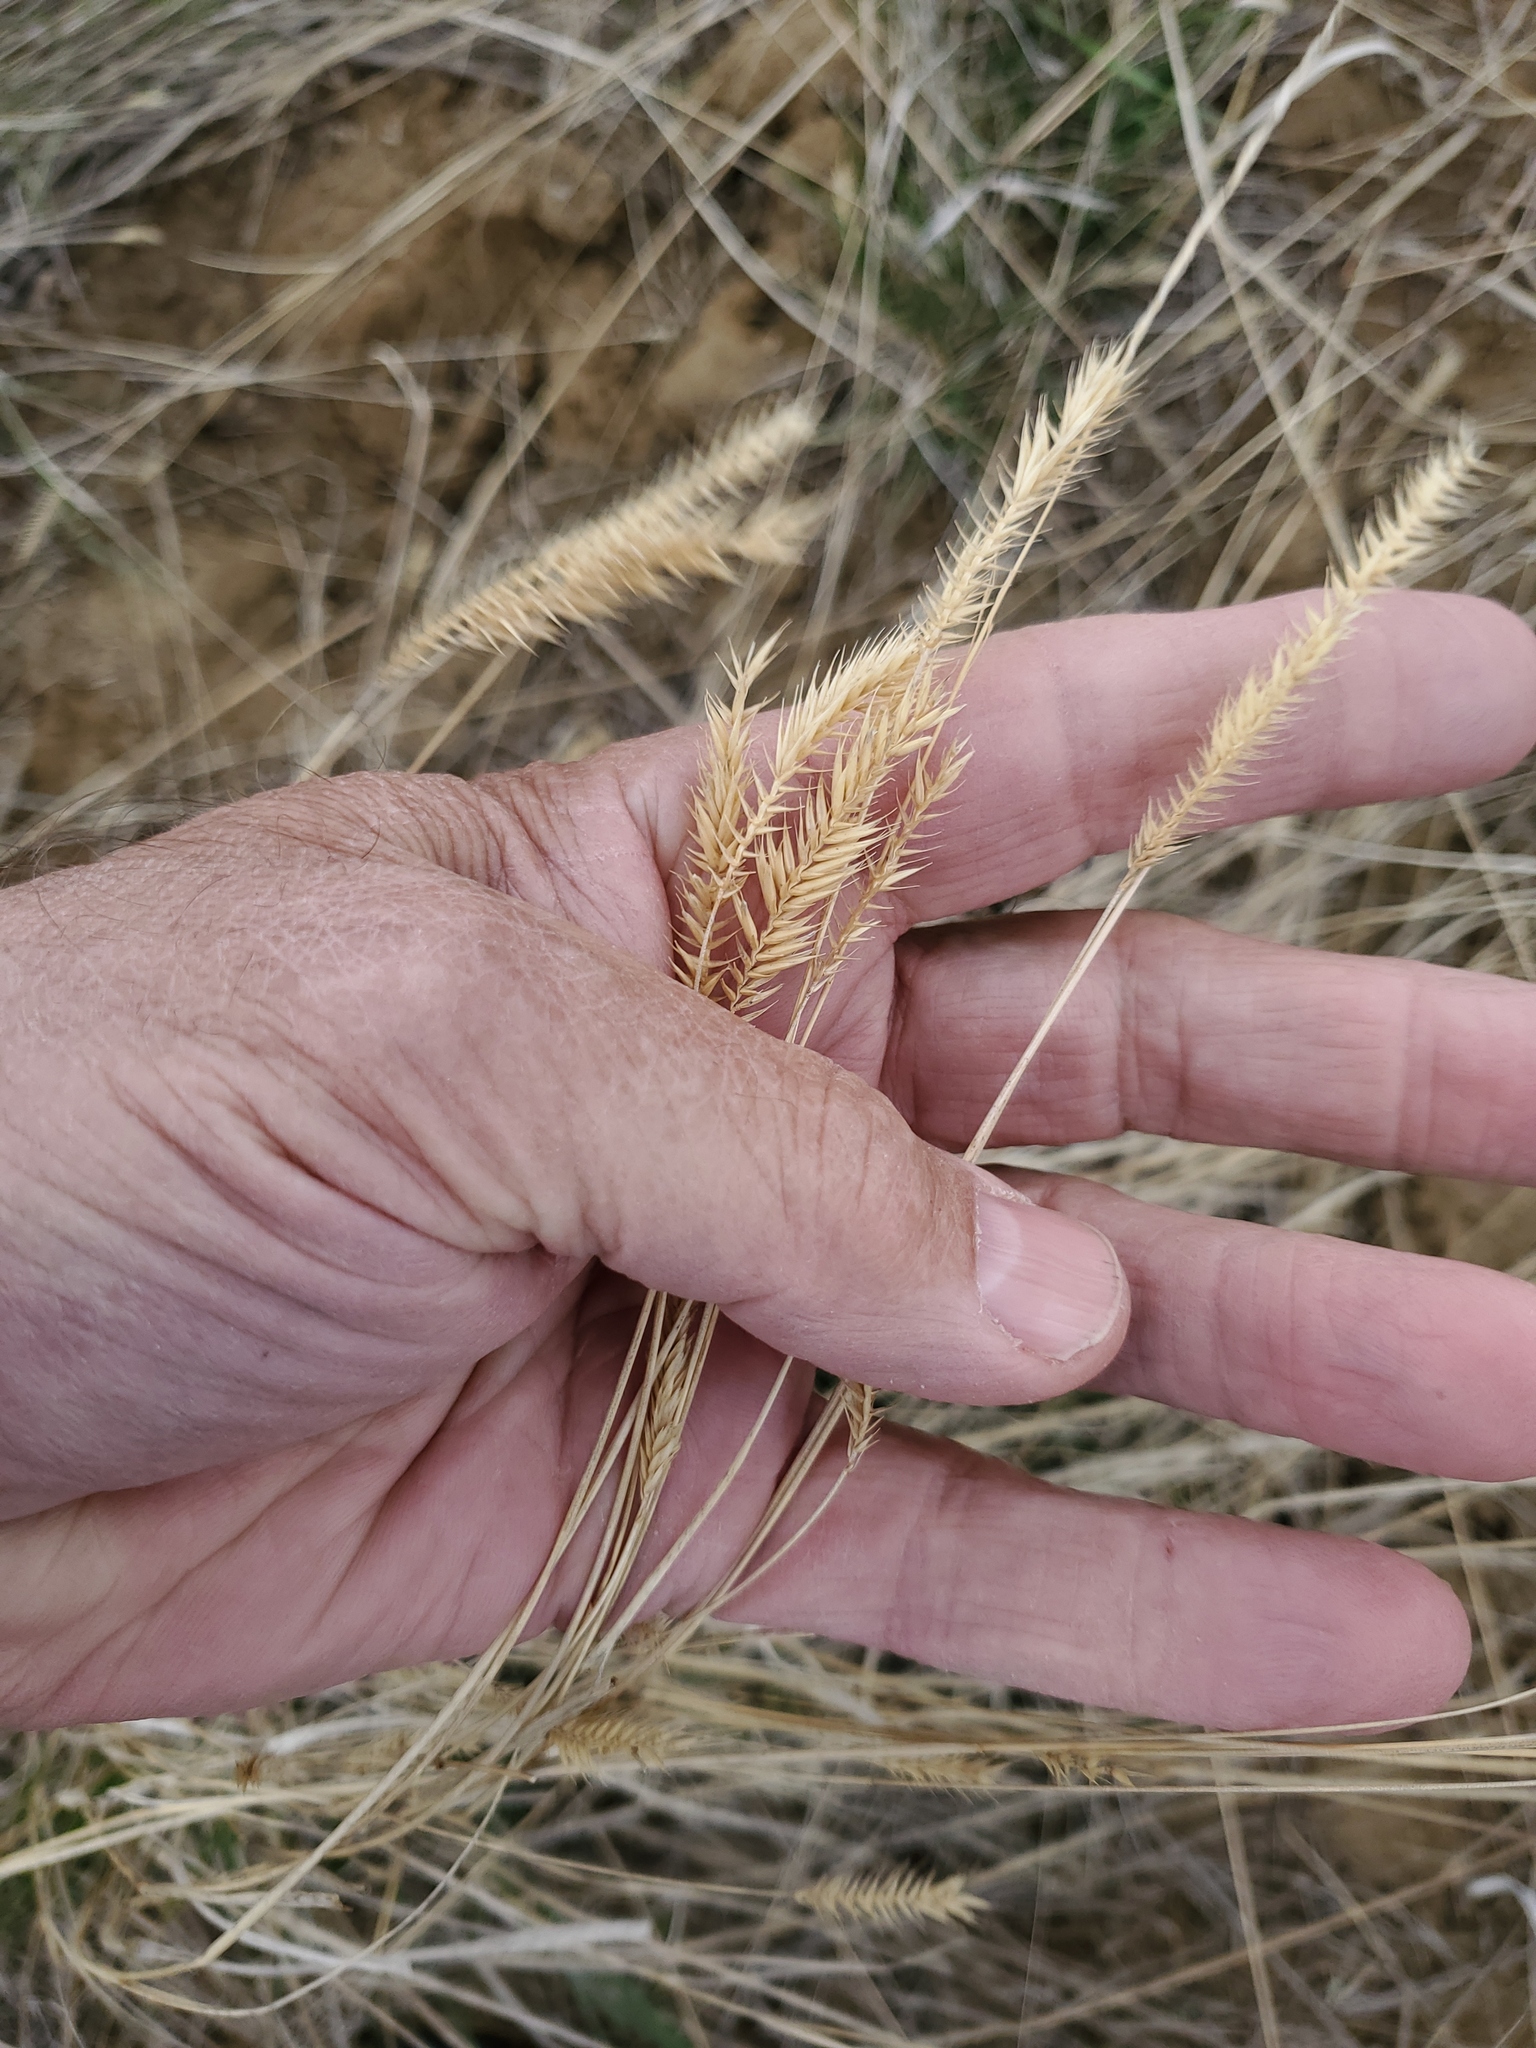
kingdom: Plantae
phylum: Tracheophyta
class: Liliopsida
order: Poales
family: Poaceae
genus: Agropyron
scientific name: Agropyron cristatum
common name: Crested wheatgrass
